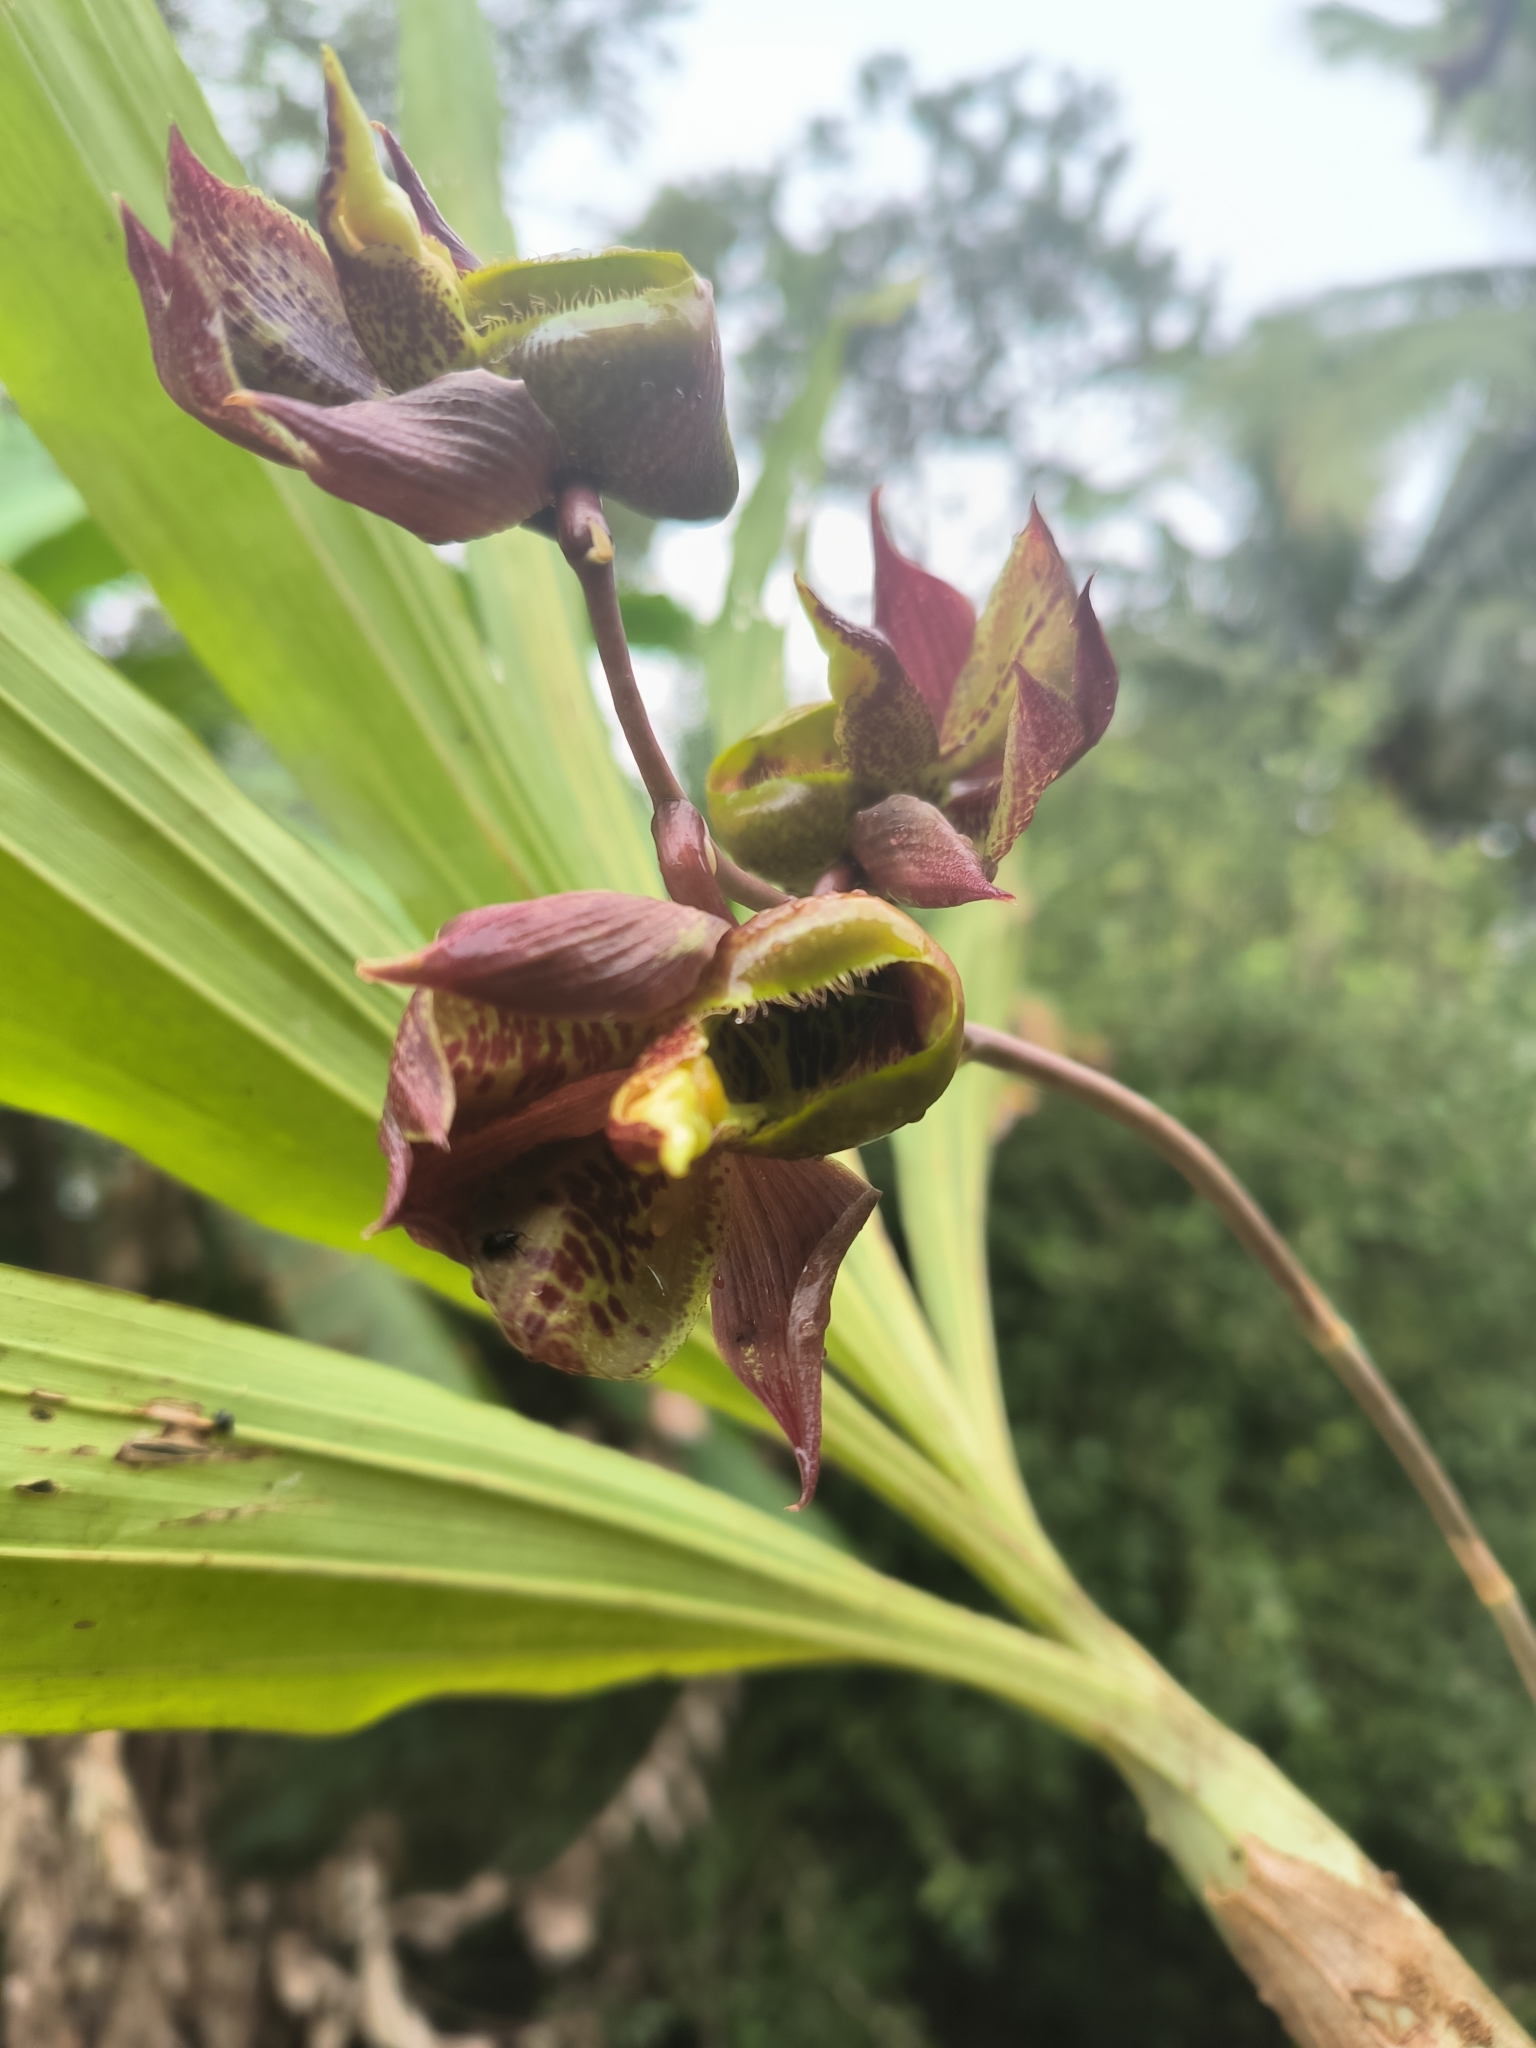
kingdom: Plantae
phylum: Tracheophyta
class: Liliopsida
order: Asparagales
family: Orchidaceae
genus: Catasetum
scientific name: Catasetum maculatum
